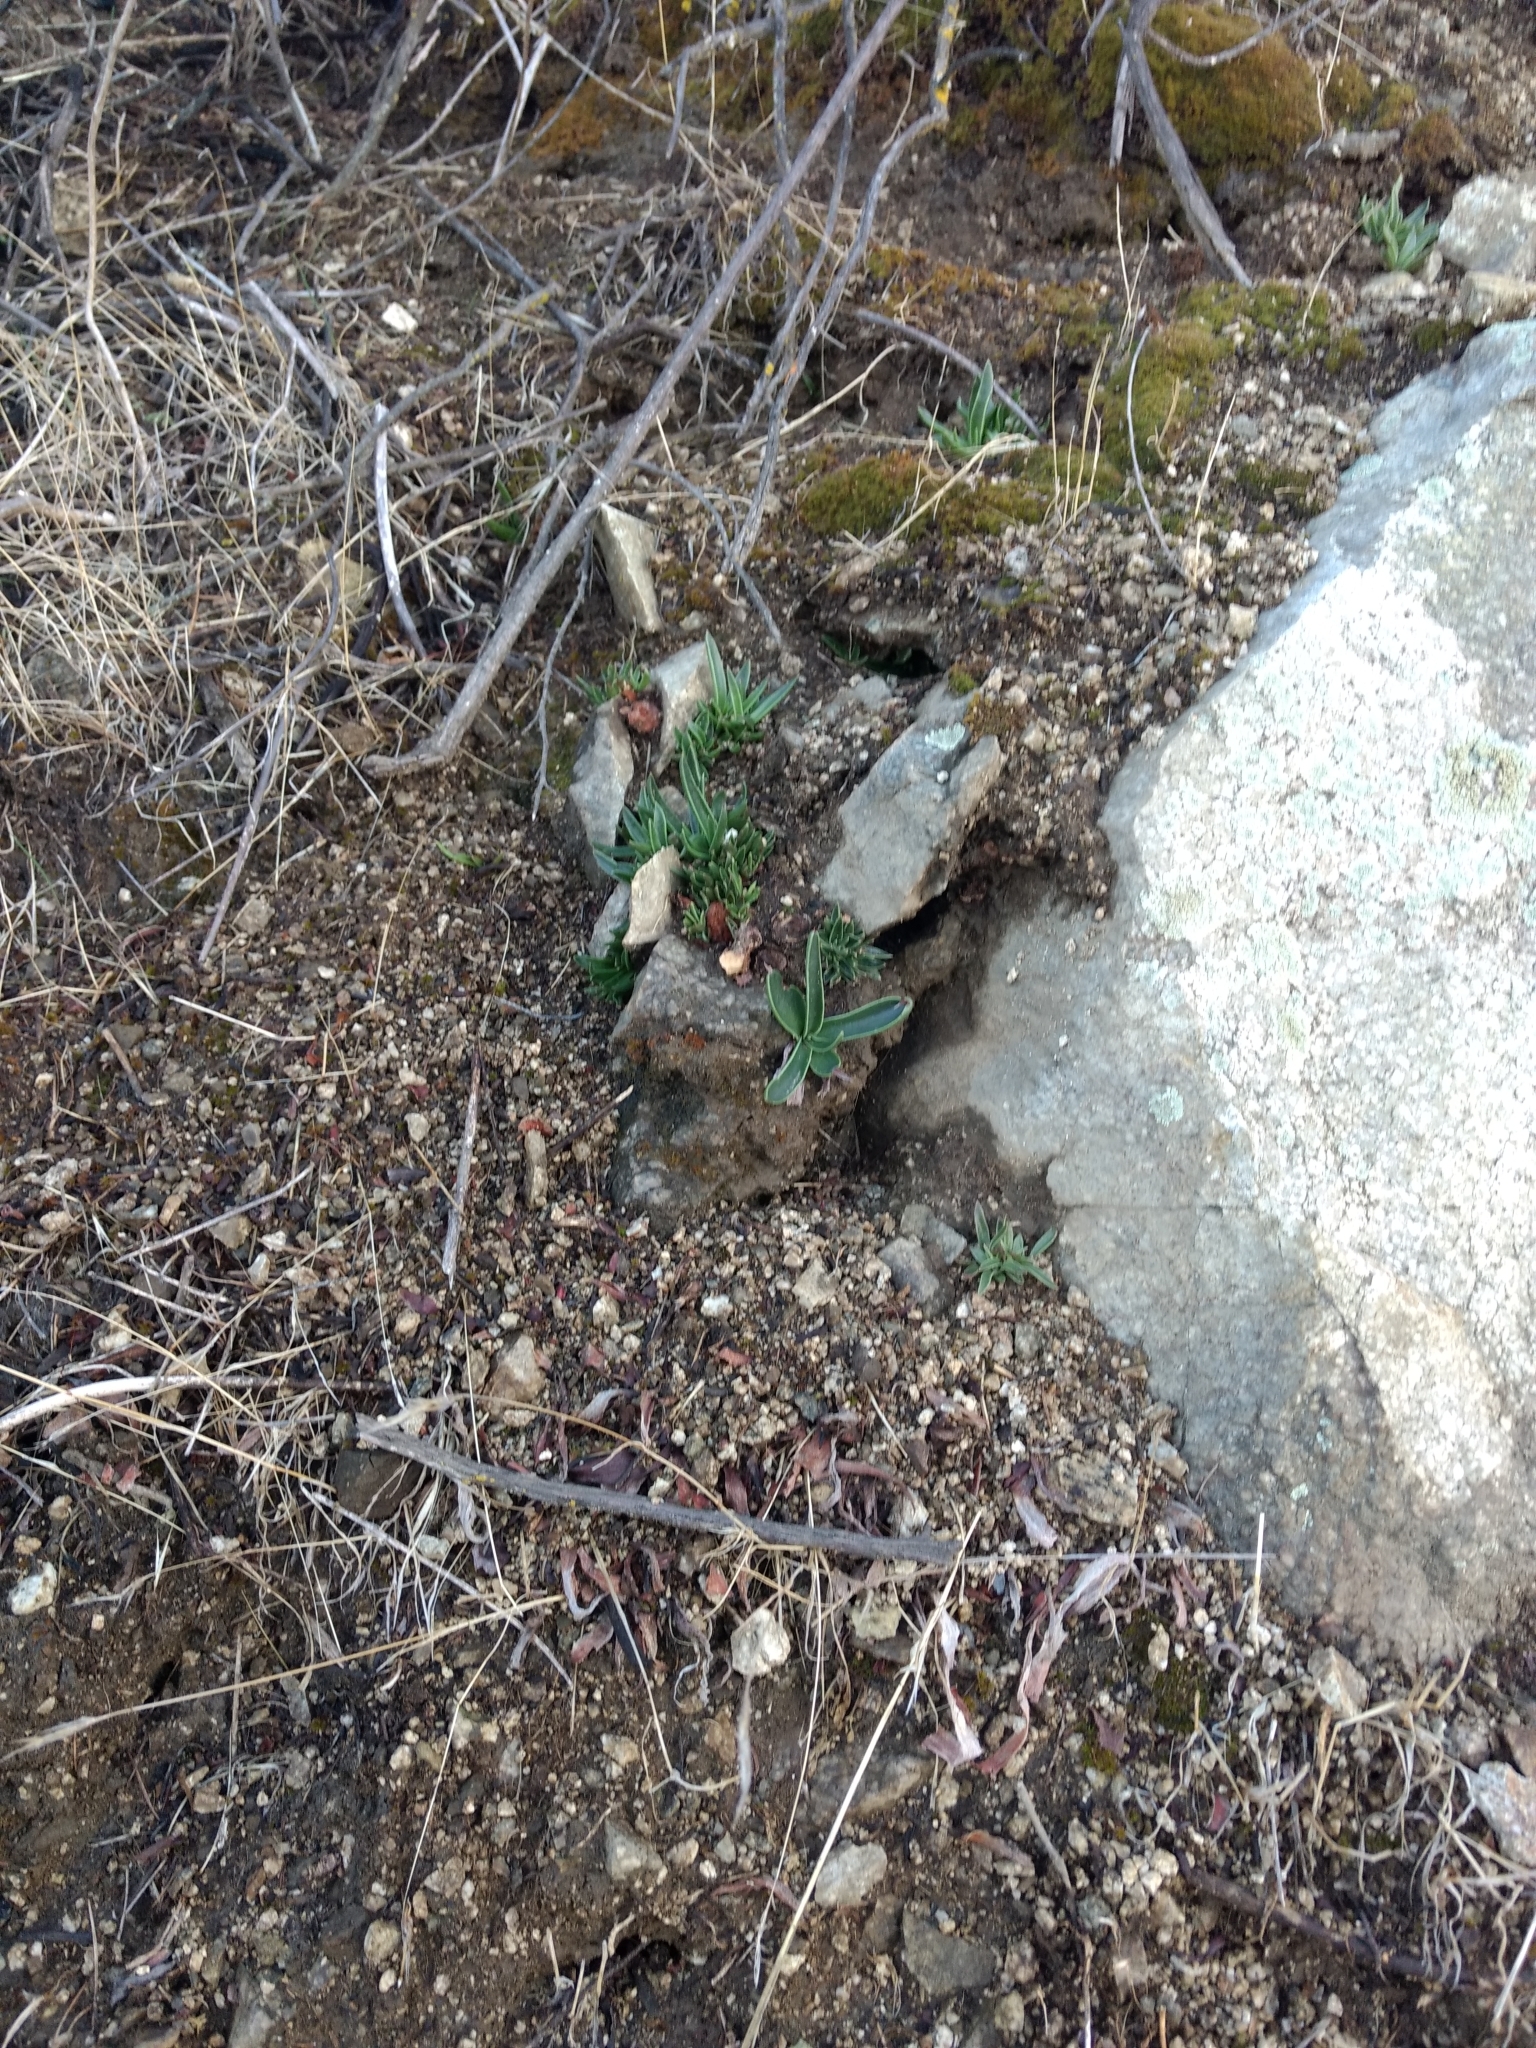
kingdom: Plantae
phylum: Tracheophyta
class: Magnoliopsida
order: Saxifragales
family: Crassulaceae
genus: Dudleya
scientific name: Dudleya lanceolata
